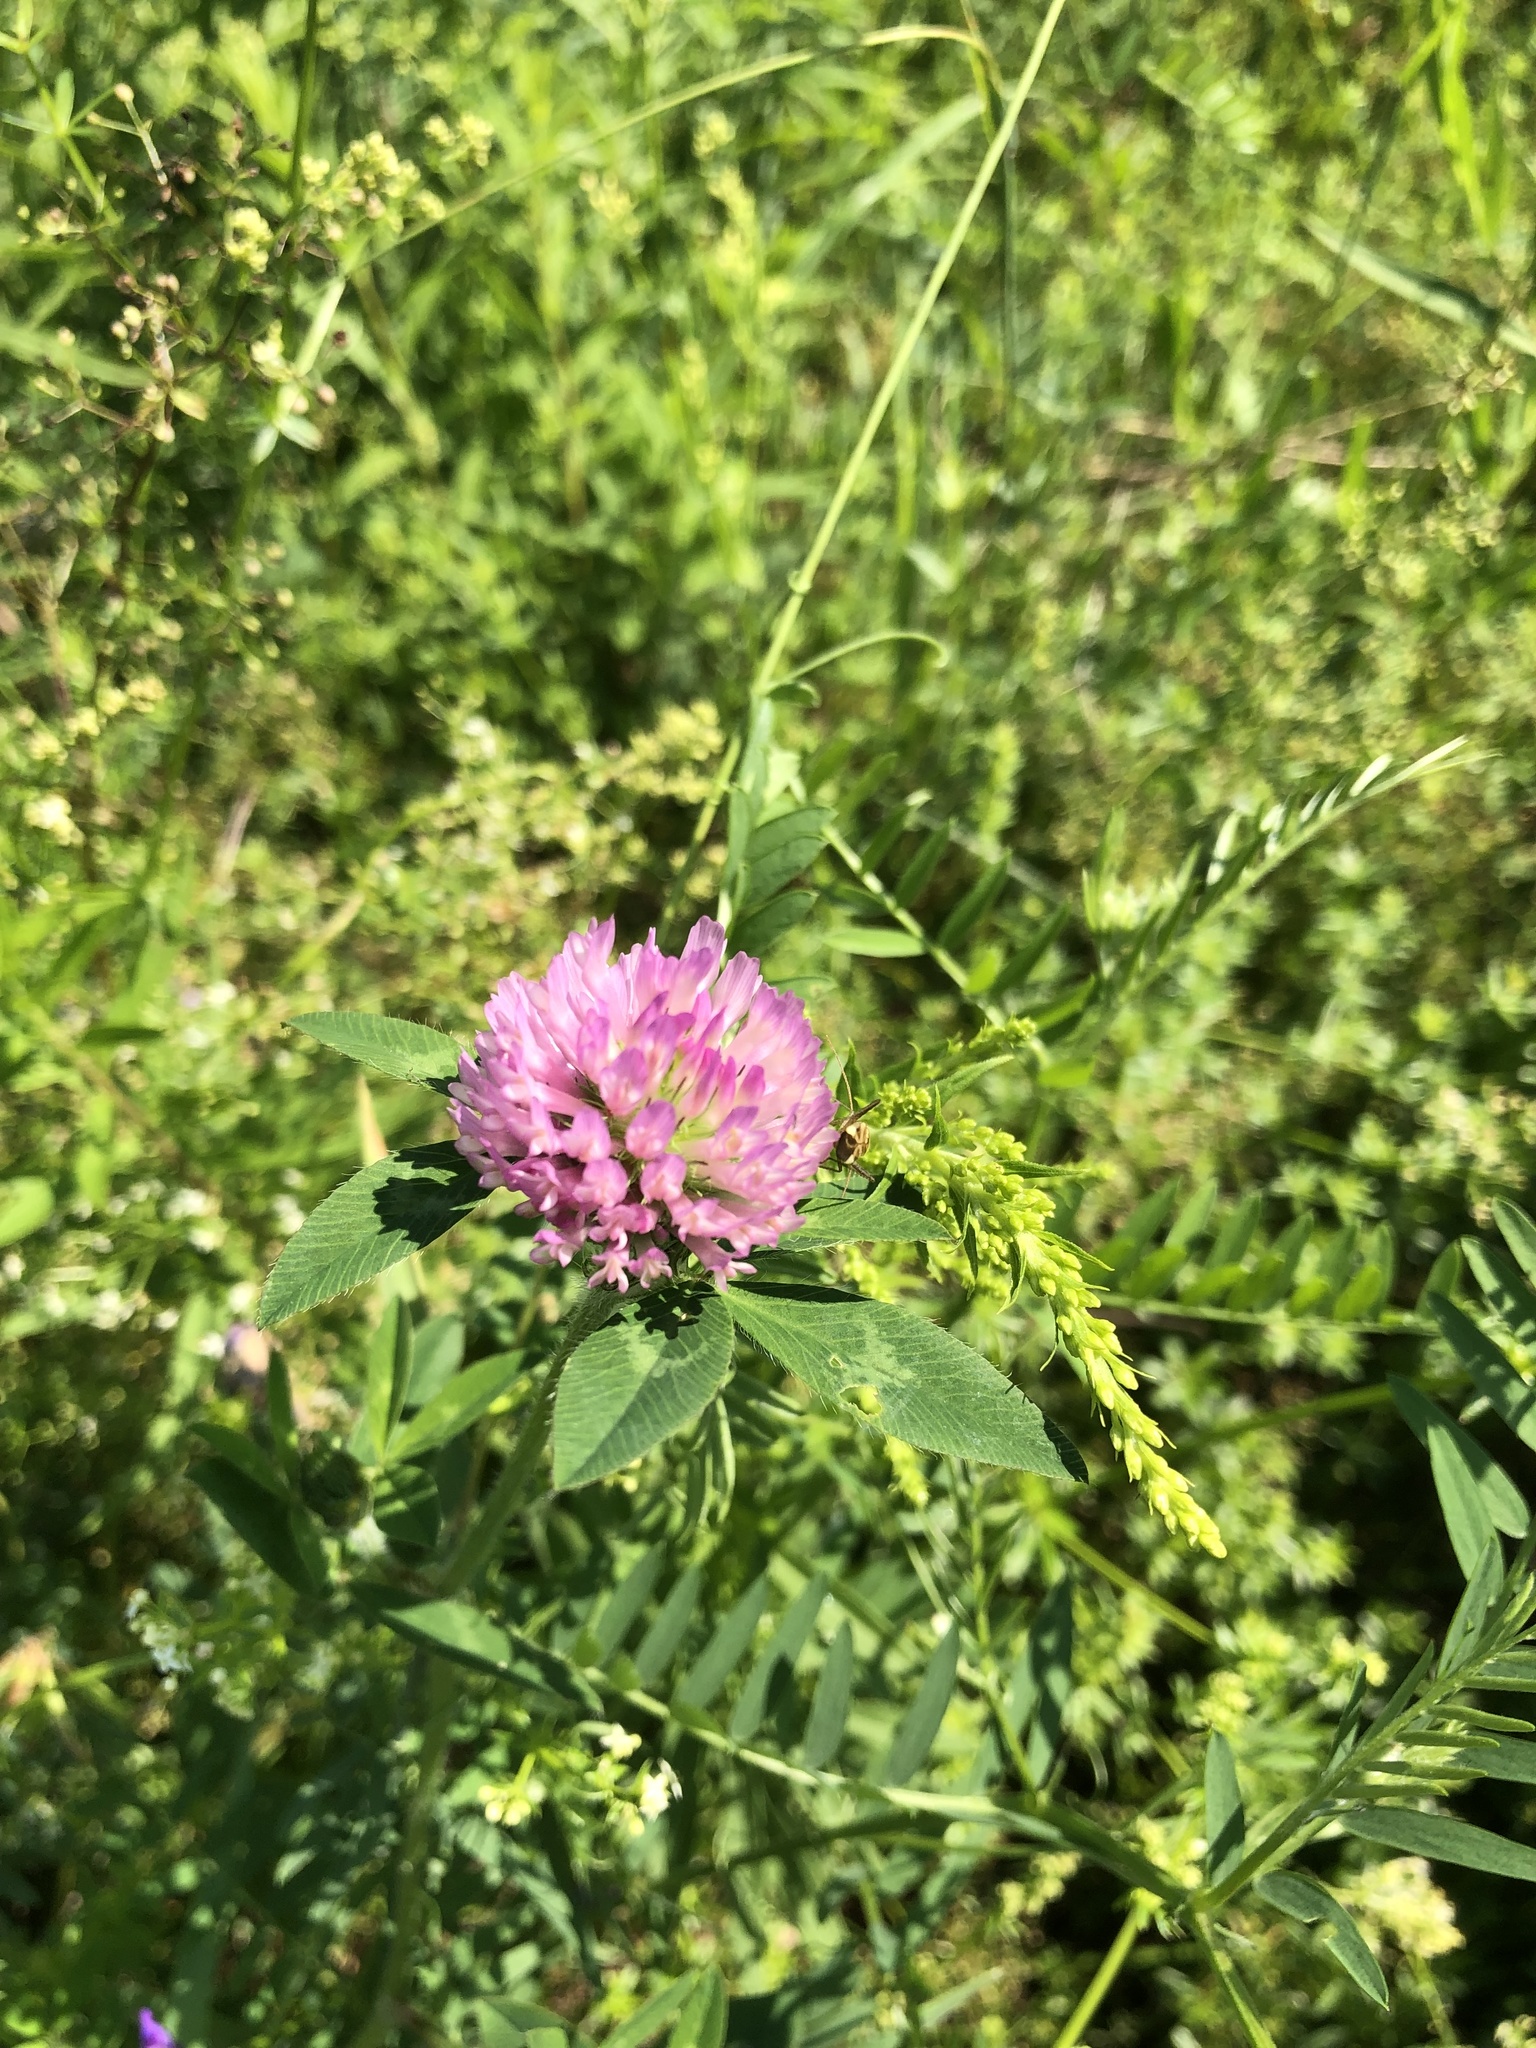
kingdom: Plantae
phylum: Tracheophyta
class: Magnoliopsida
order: Fabales
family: Fabaceae
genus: Trifolium
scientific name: Trifolium pratense
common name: Red clover
